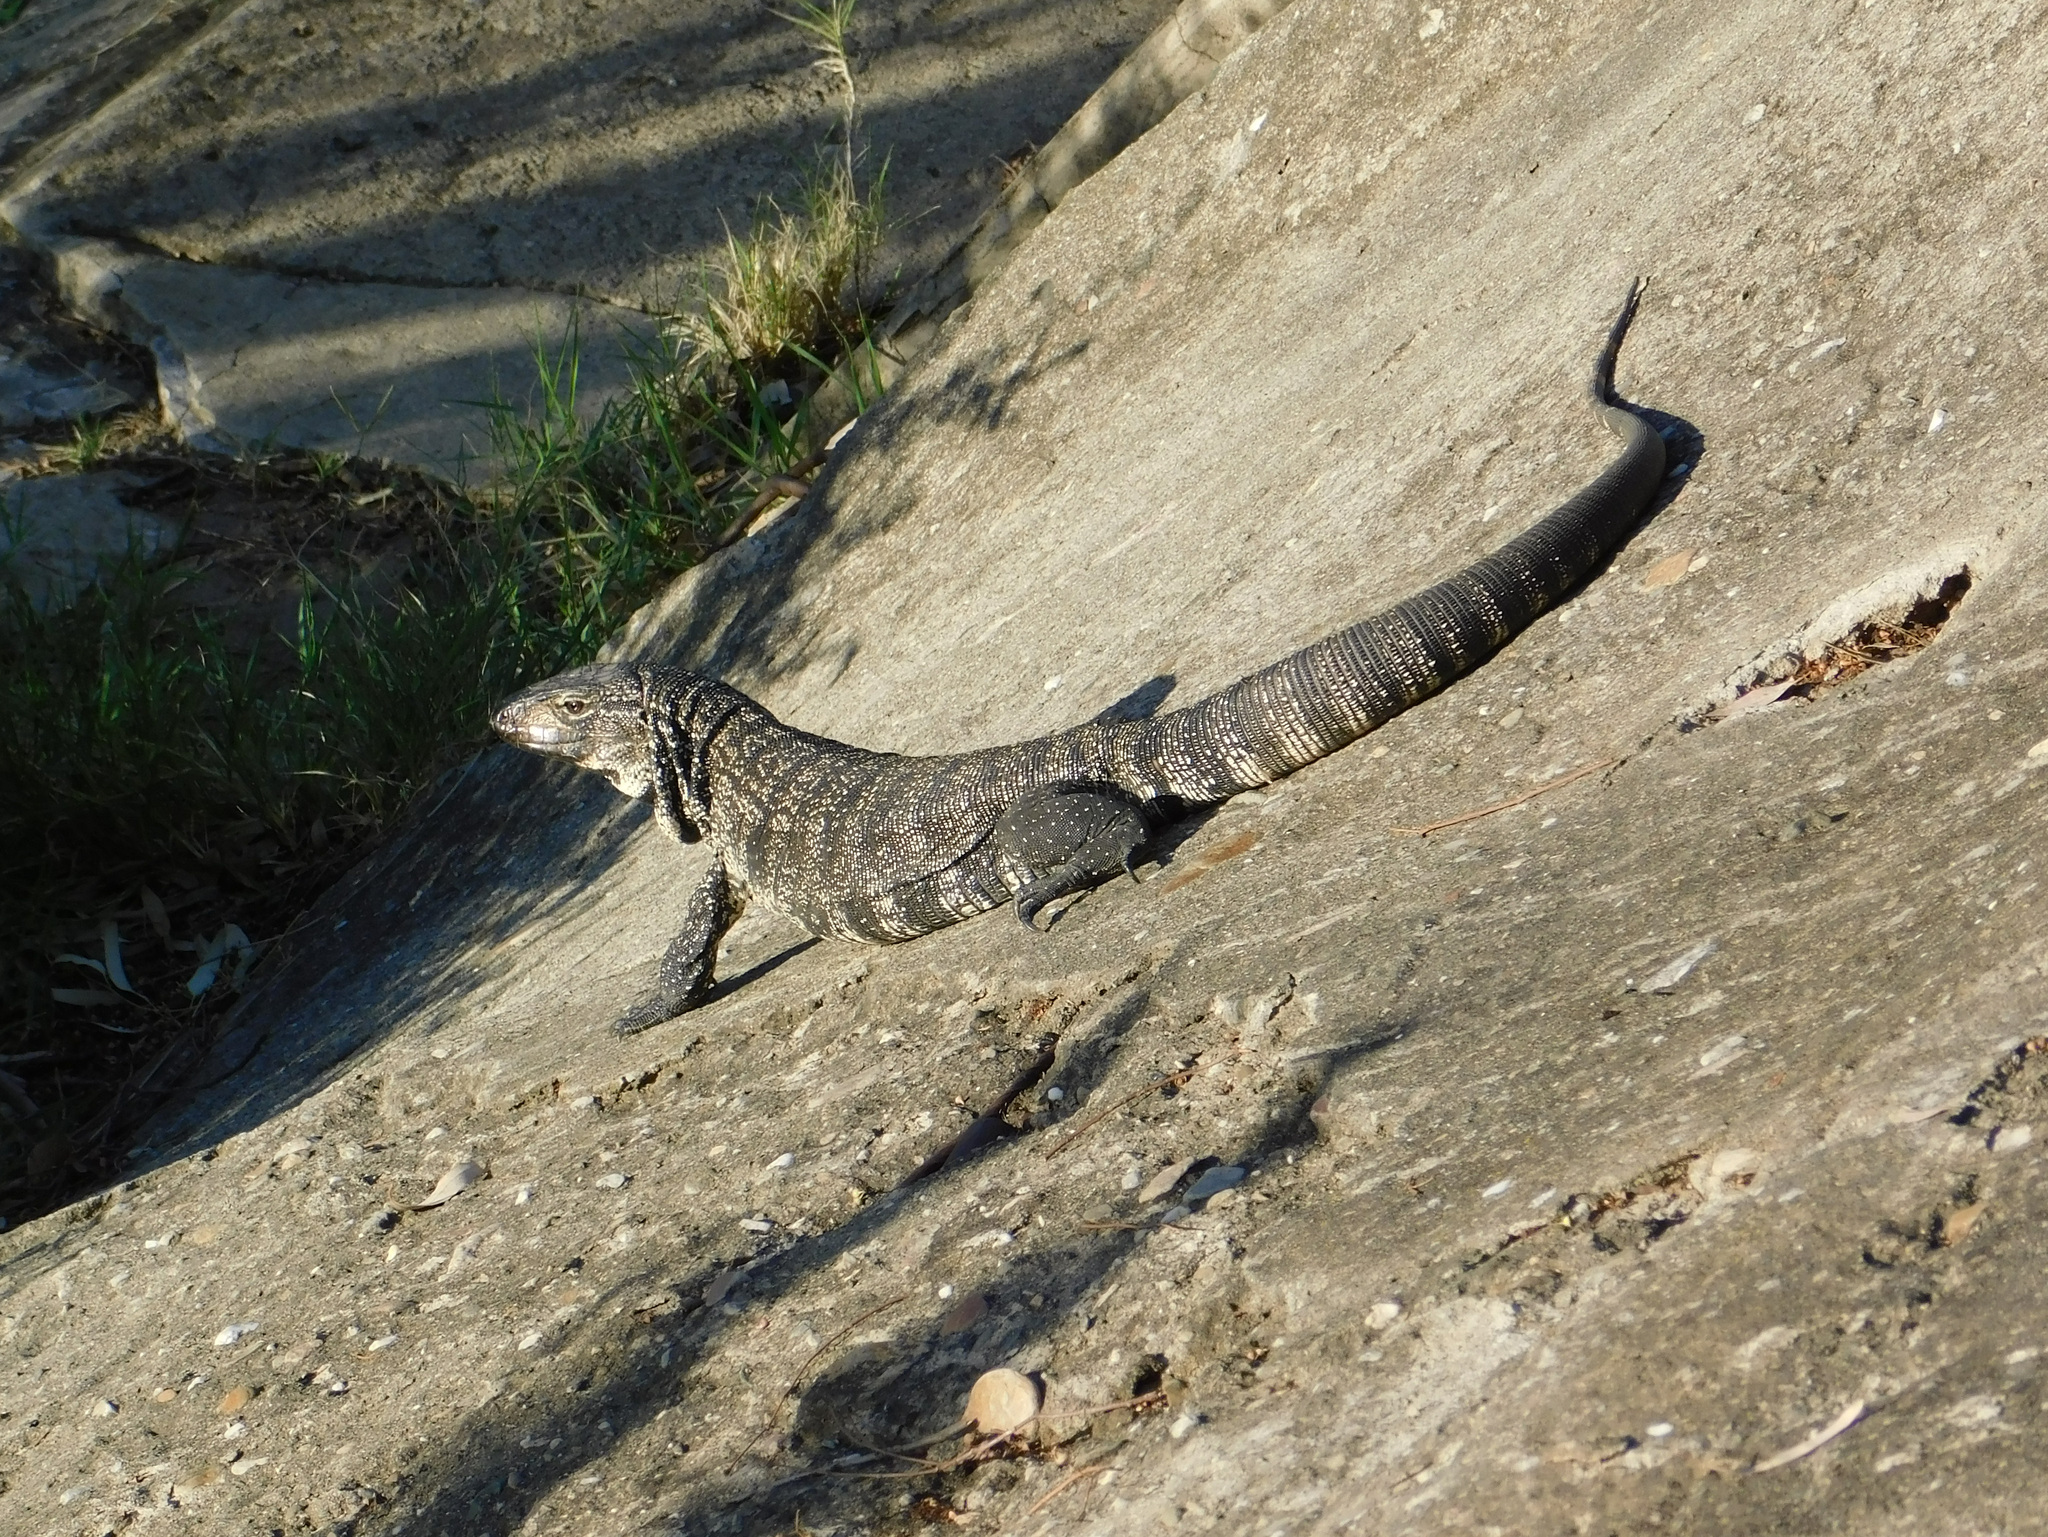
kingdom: Animalia
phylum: Chordata
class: Squamata
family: Teiidae
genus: Salvator
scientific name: Salvator merianae
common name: Argentine black and white tegu
